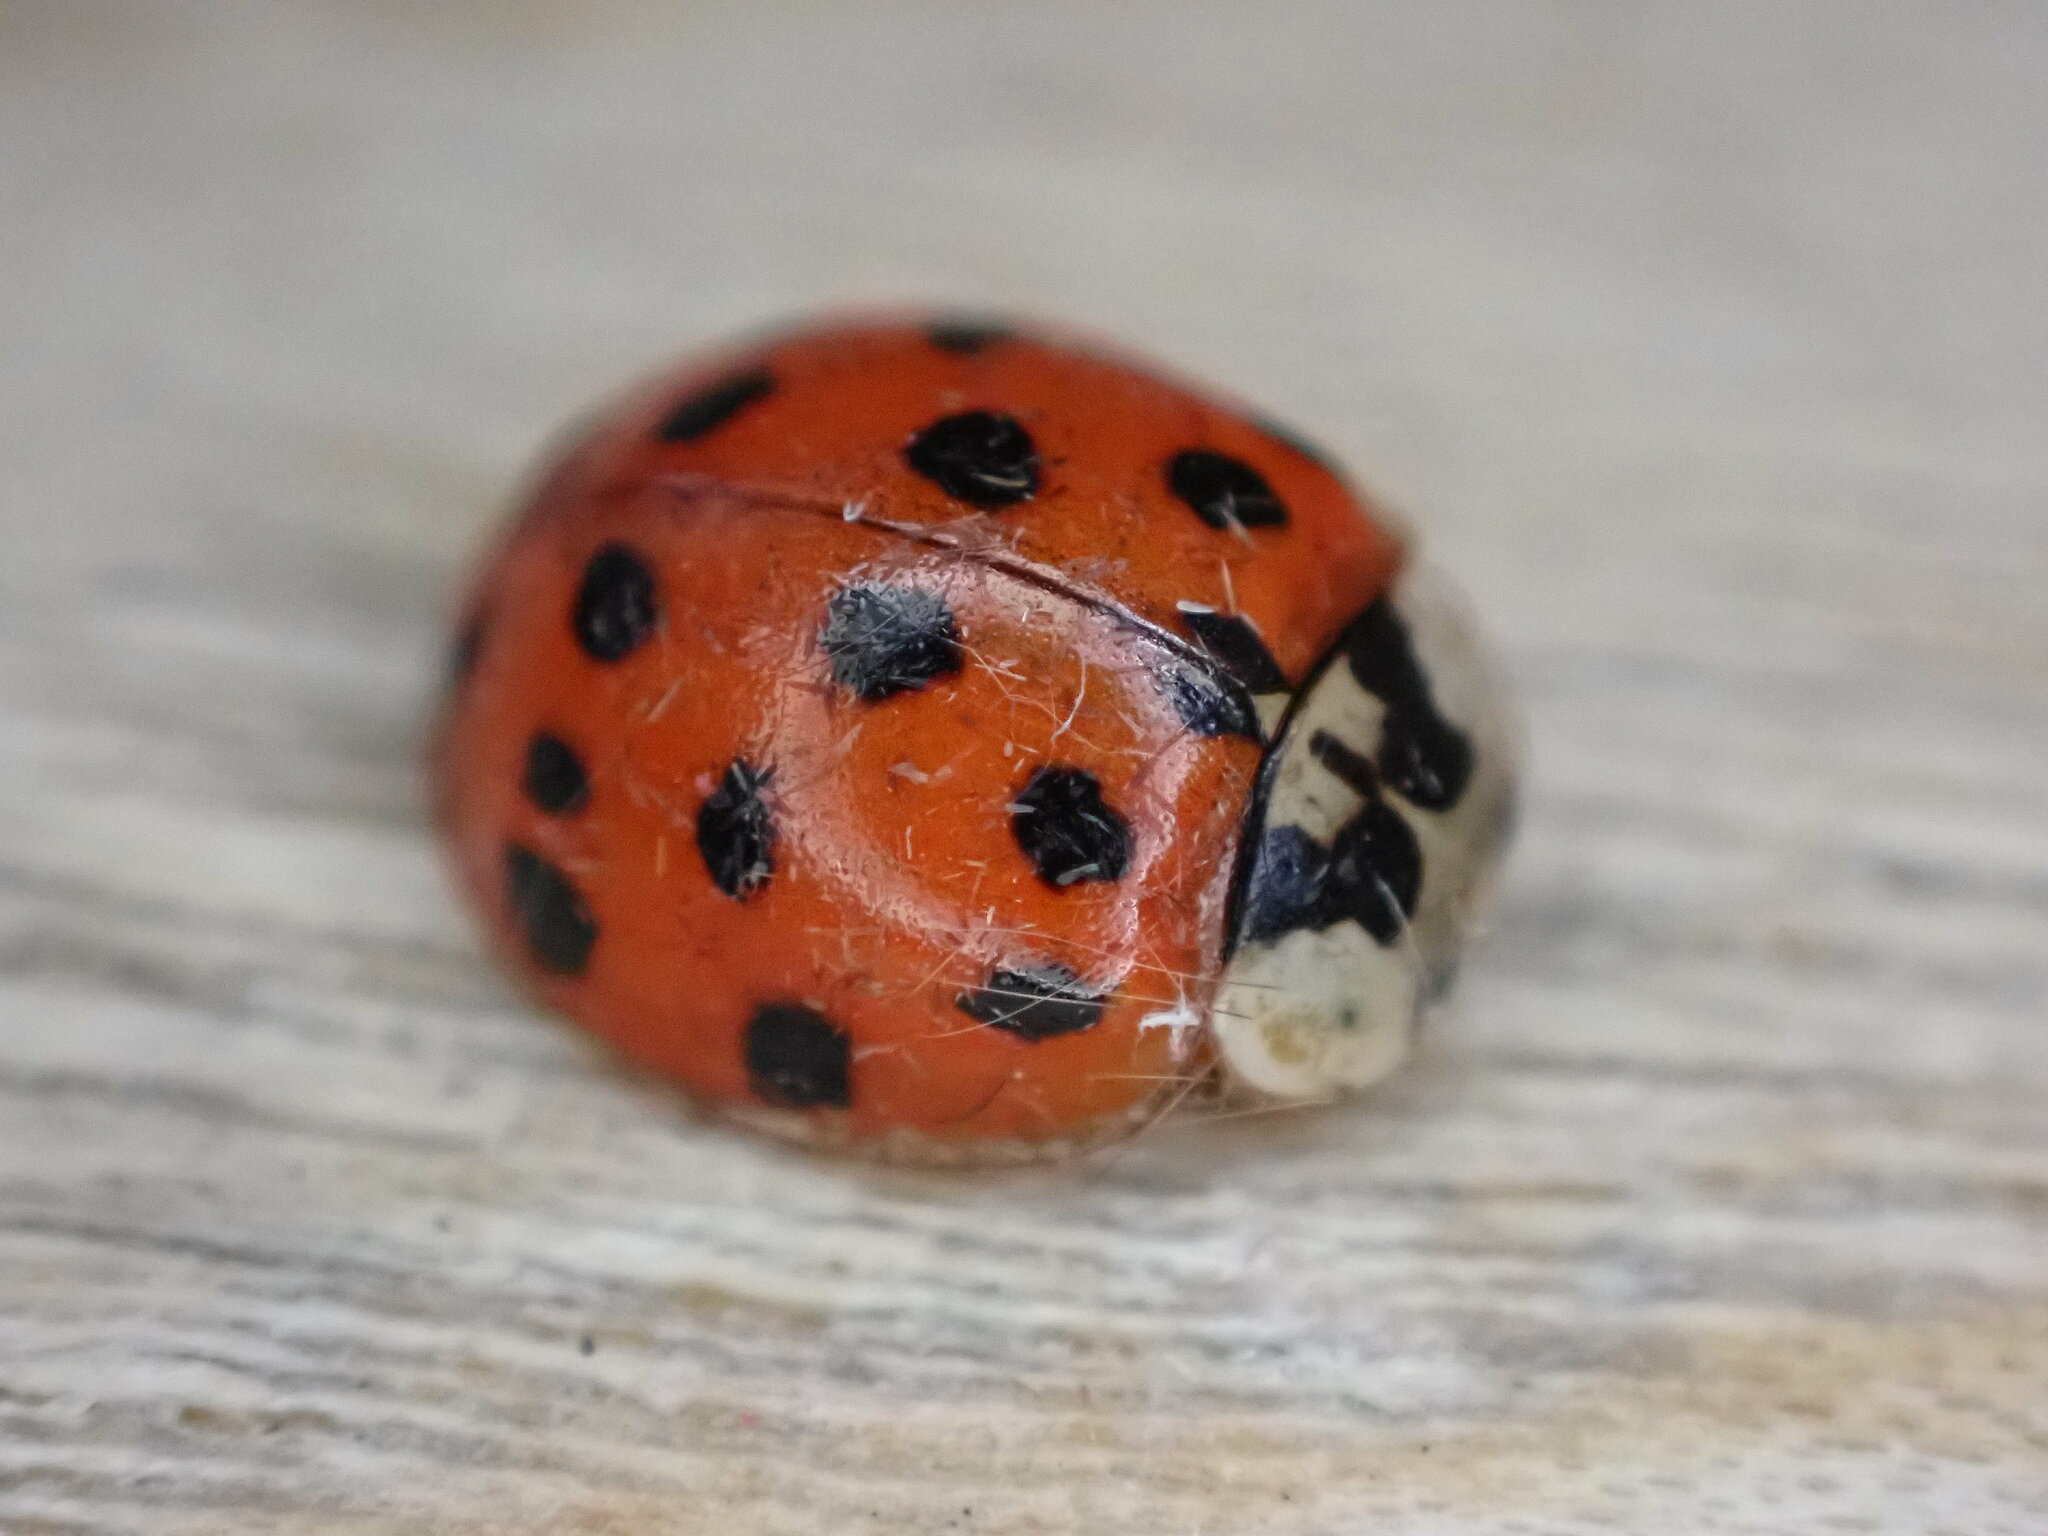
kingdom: Animalia
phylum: Arthropoda
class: Insecta
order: Coleoptera
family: Coccinellidae
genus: Harmonia
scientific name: Harmonia axyridis
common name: Harlequin ladybird
